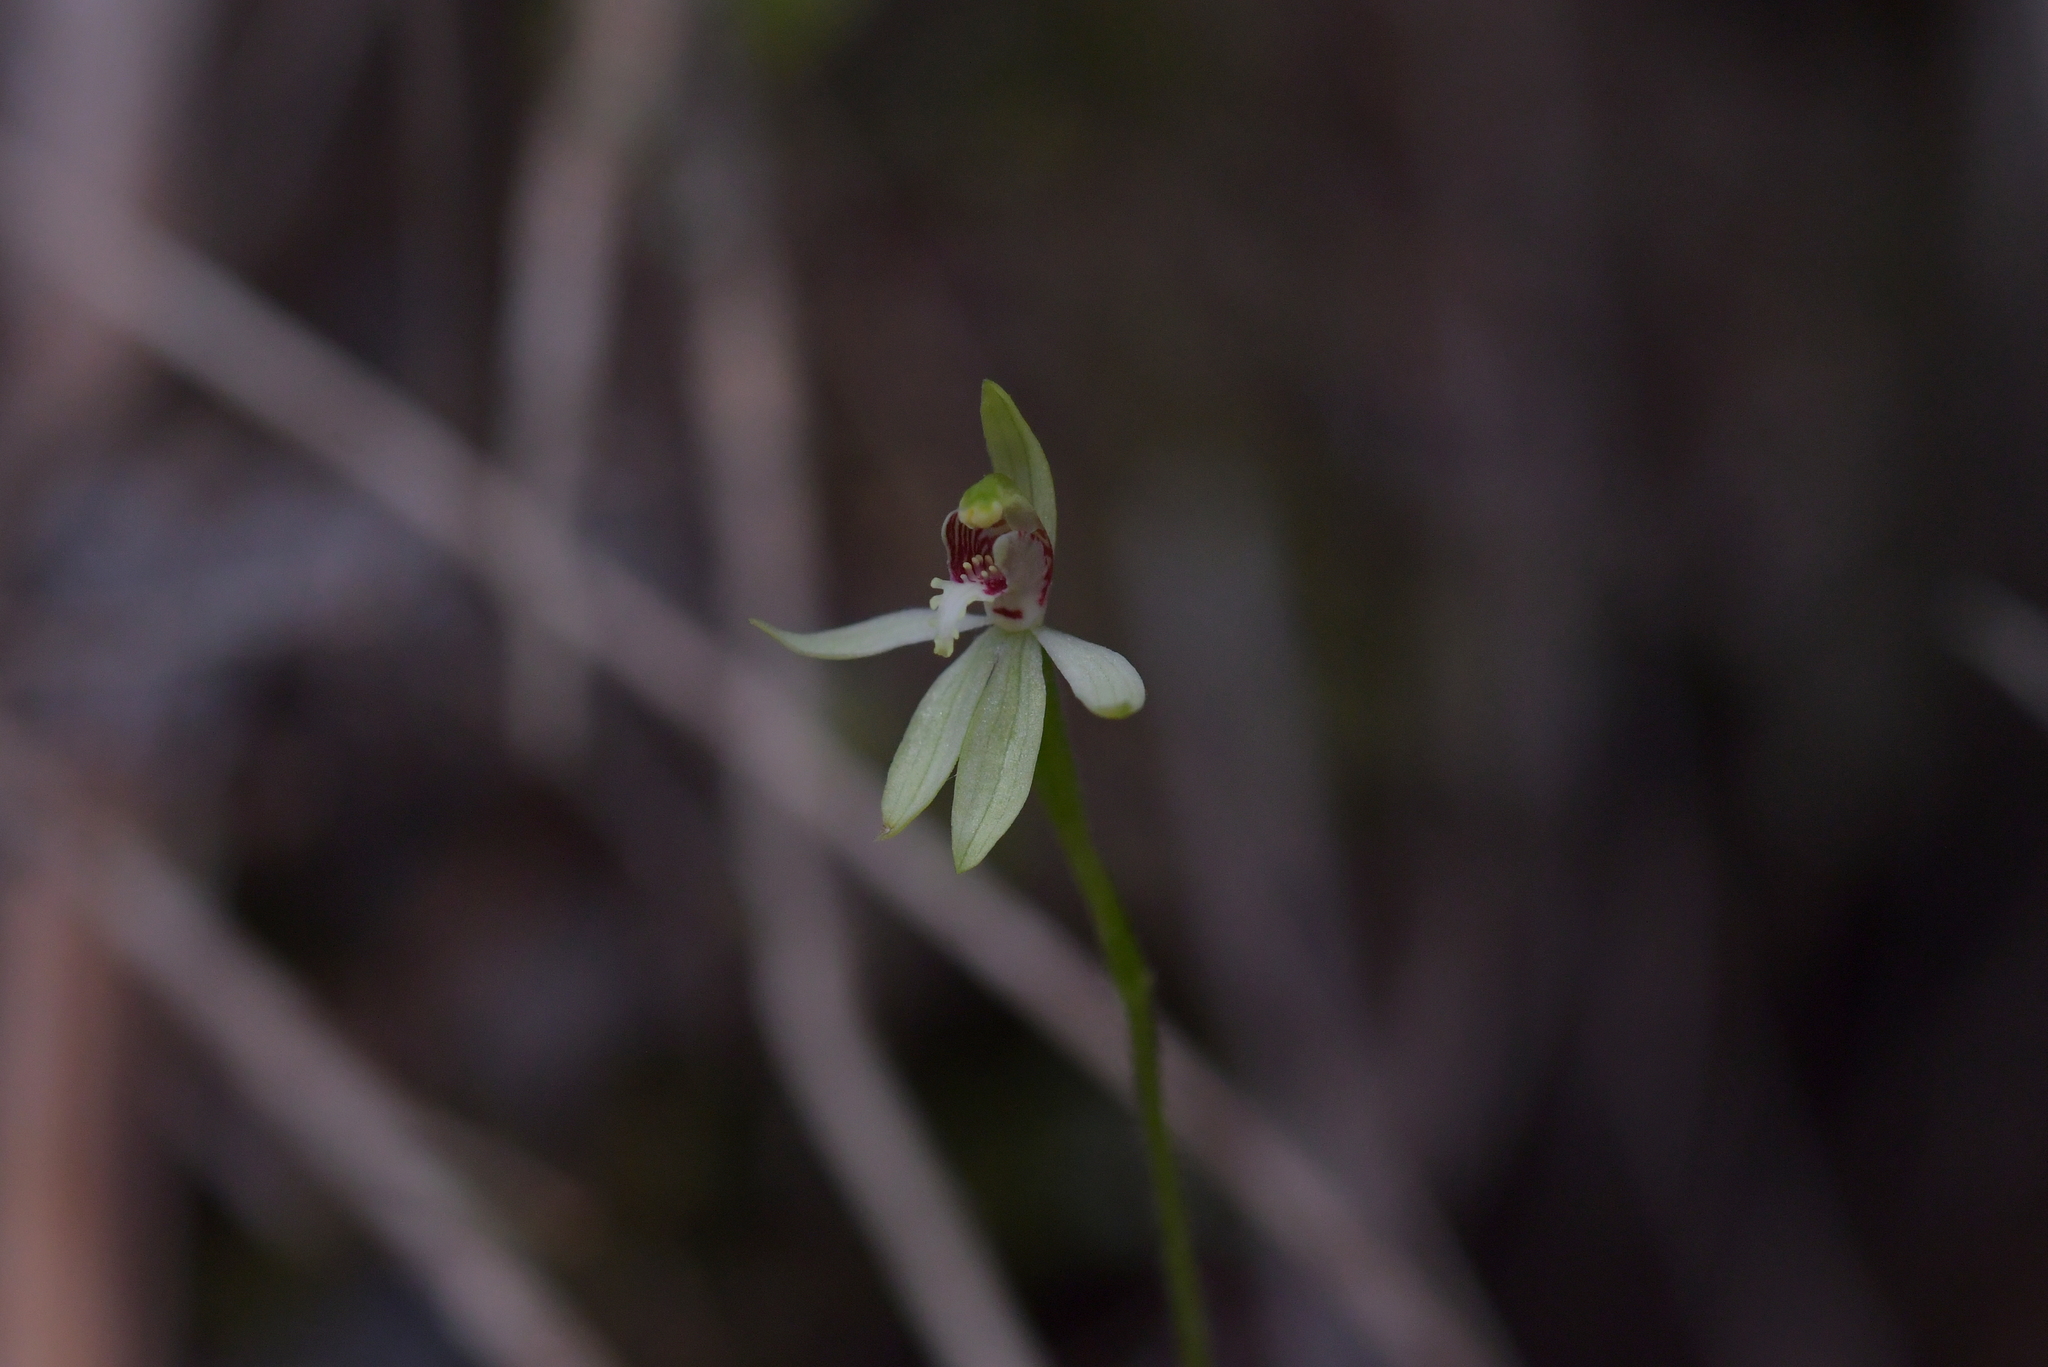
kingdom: Plantae
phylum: Tracheophyta
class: Liliopsida
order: Asparagales
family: Orchidaceae
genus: Caladenia
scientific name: Caladenia chlorostyla
